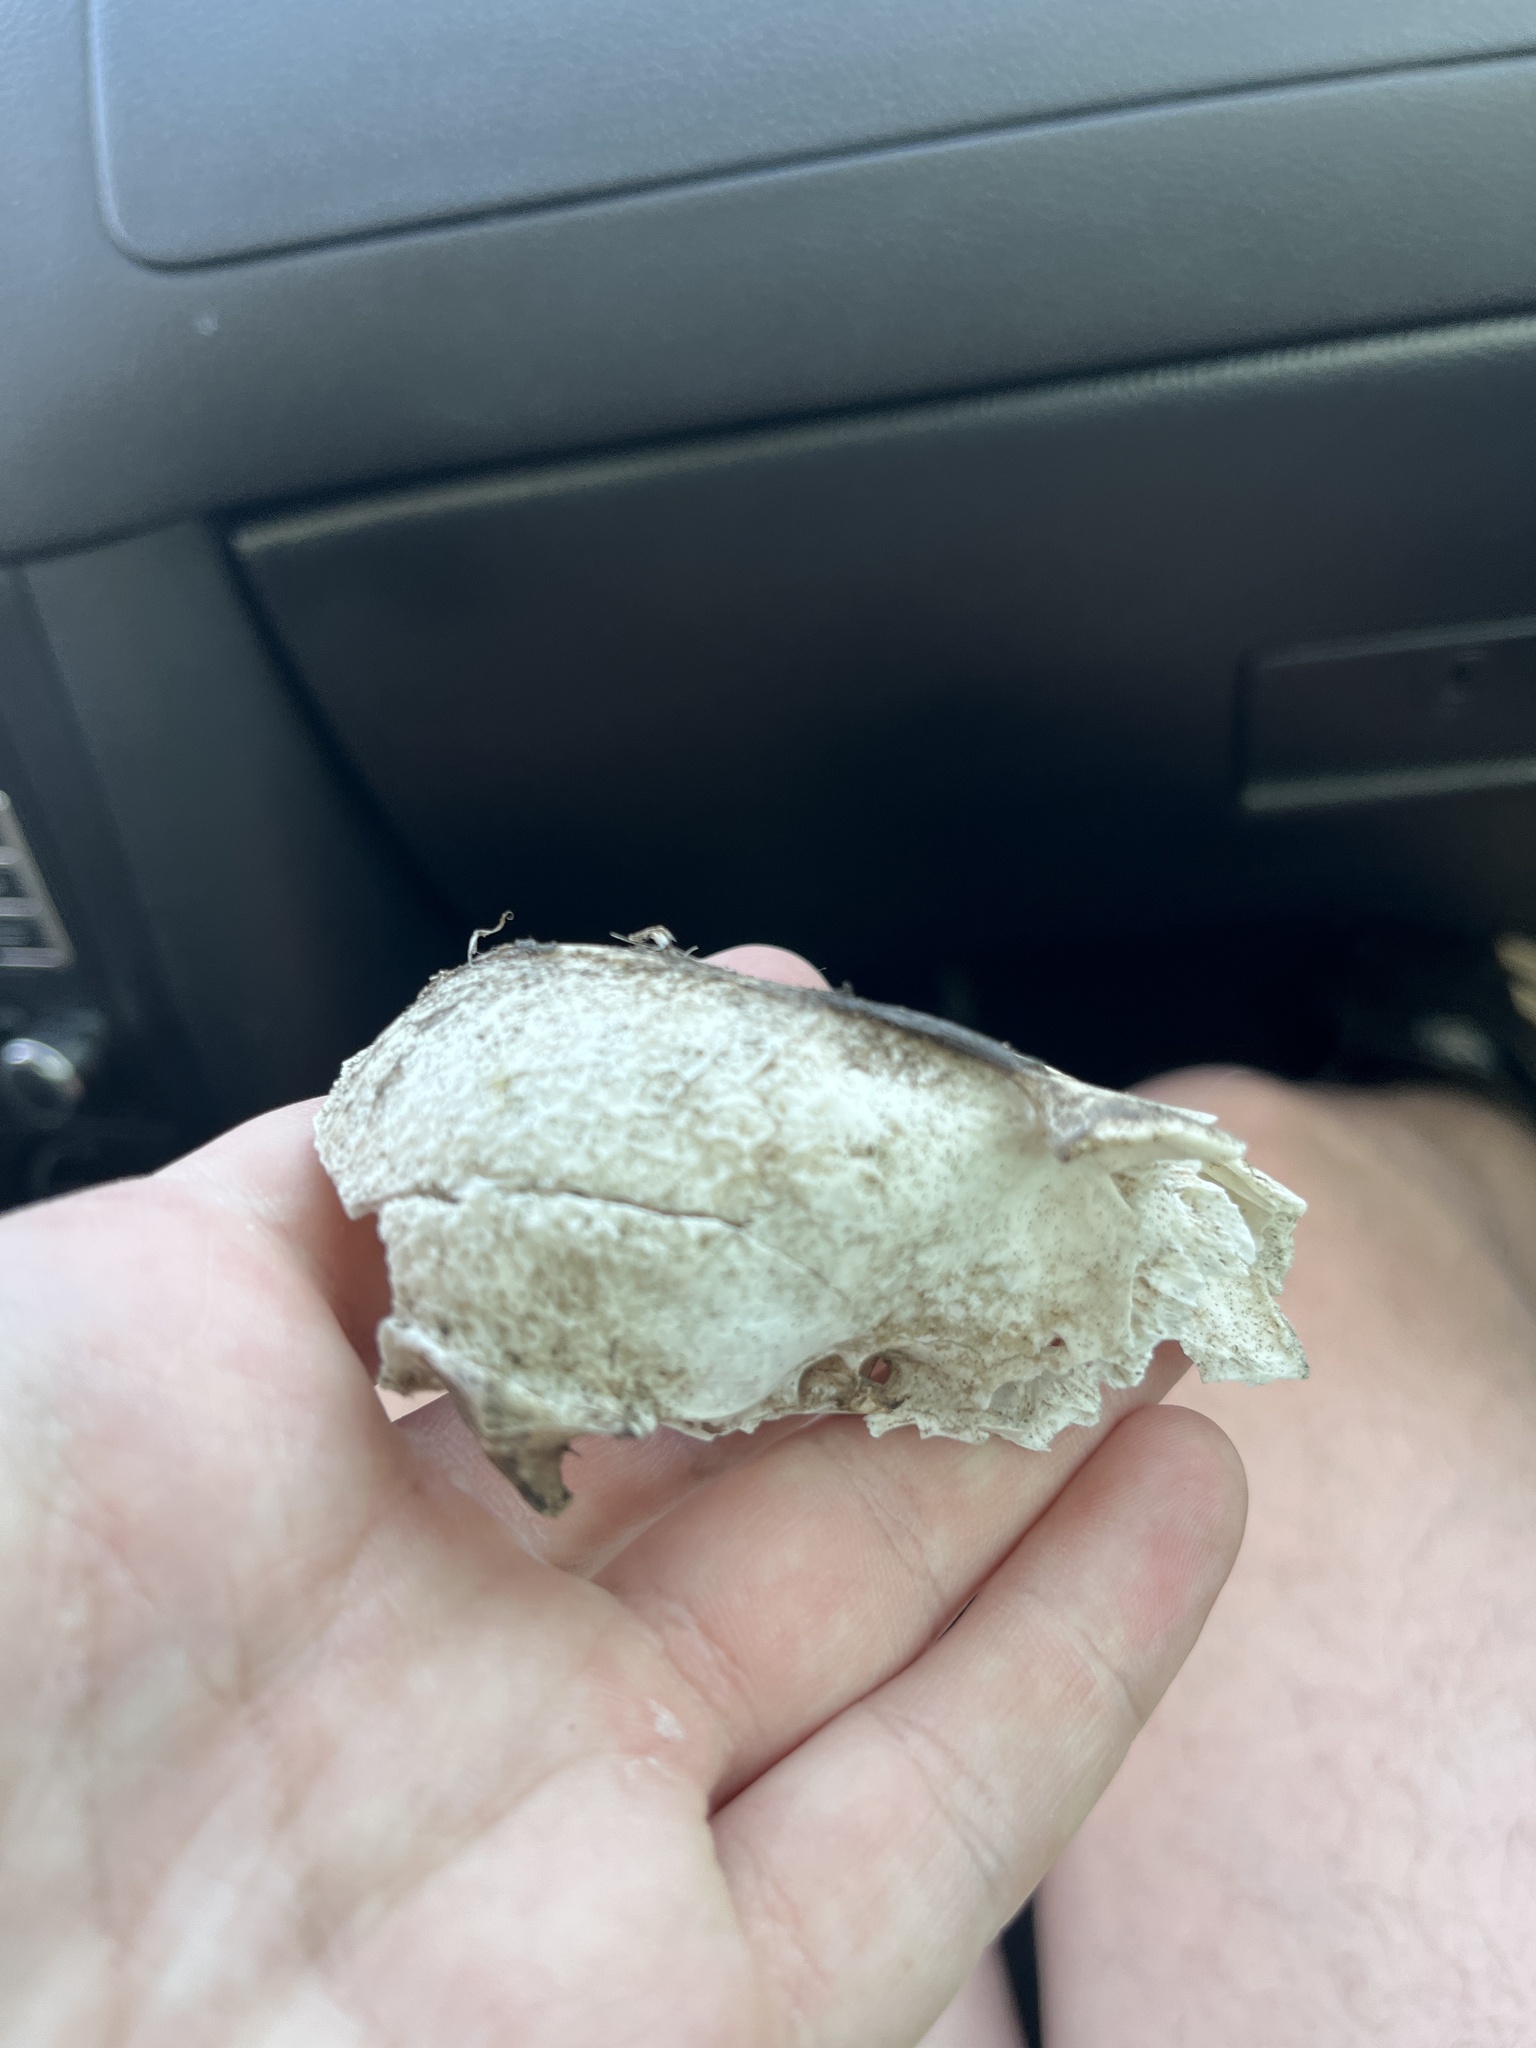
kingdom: Animalia
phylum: Chordata
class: Mammalia
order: Carnivora
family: Canidae
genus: Urocyon
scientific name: Urocyon cinereoargenteus
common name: Gray fox
